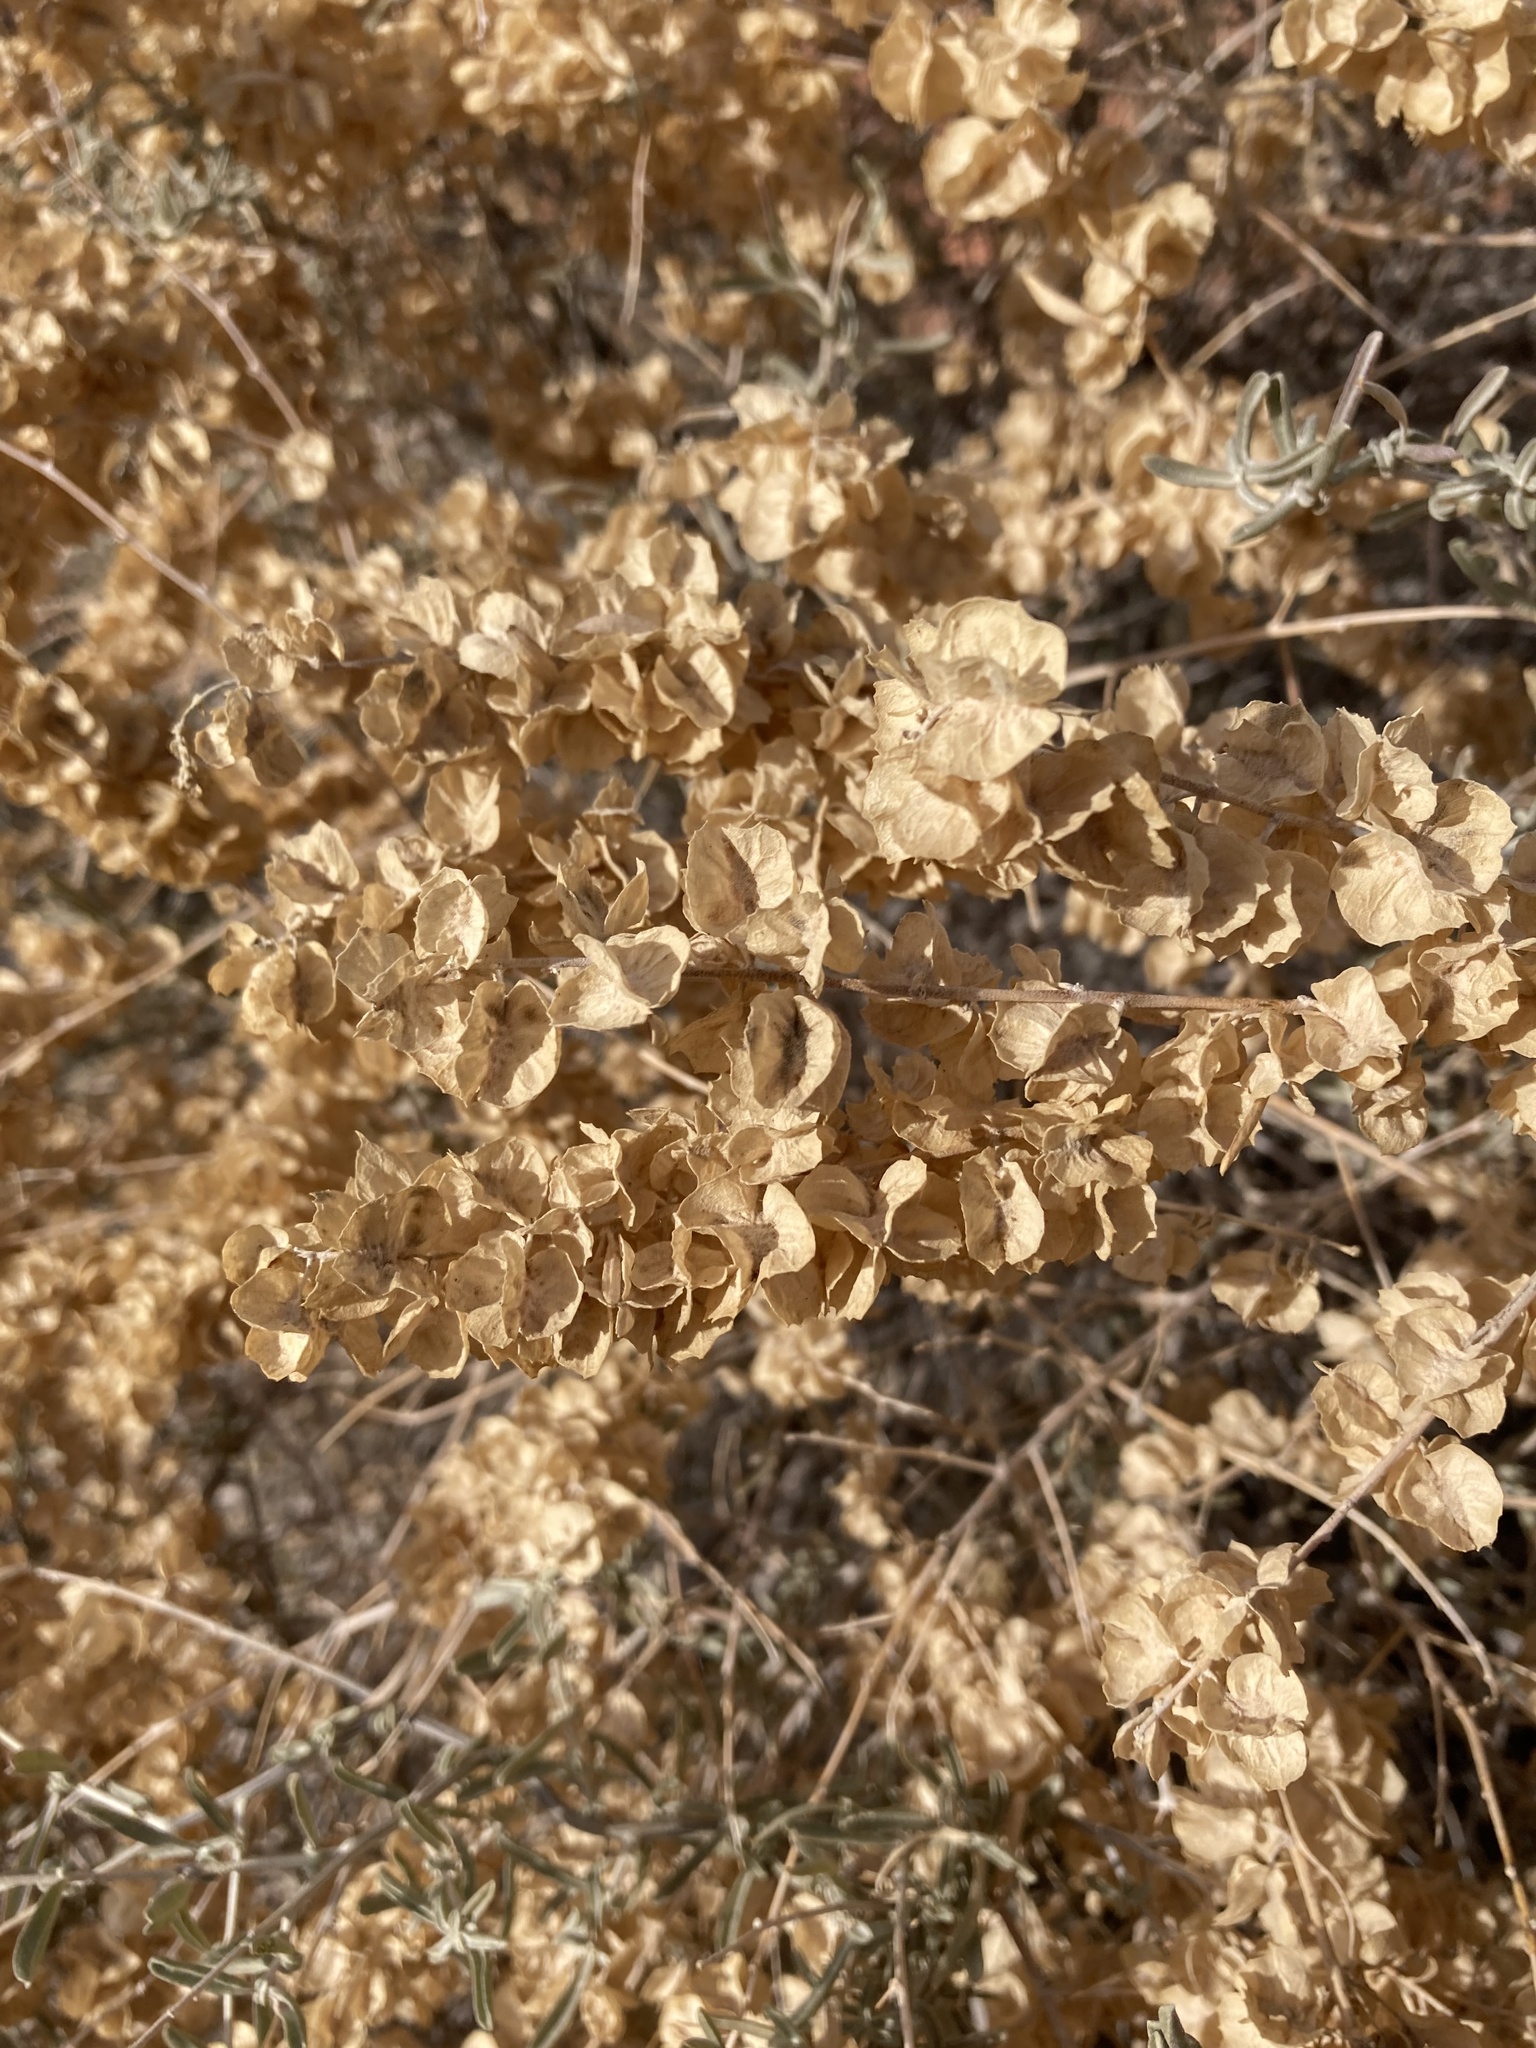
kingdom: Plantae
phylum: Tracheophyta
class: Magnoliopsida
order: Caryophyllales
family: Amaranthaceae
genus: Atriplex
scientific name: Atriplex canescens
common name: Four-wing saltbush
